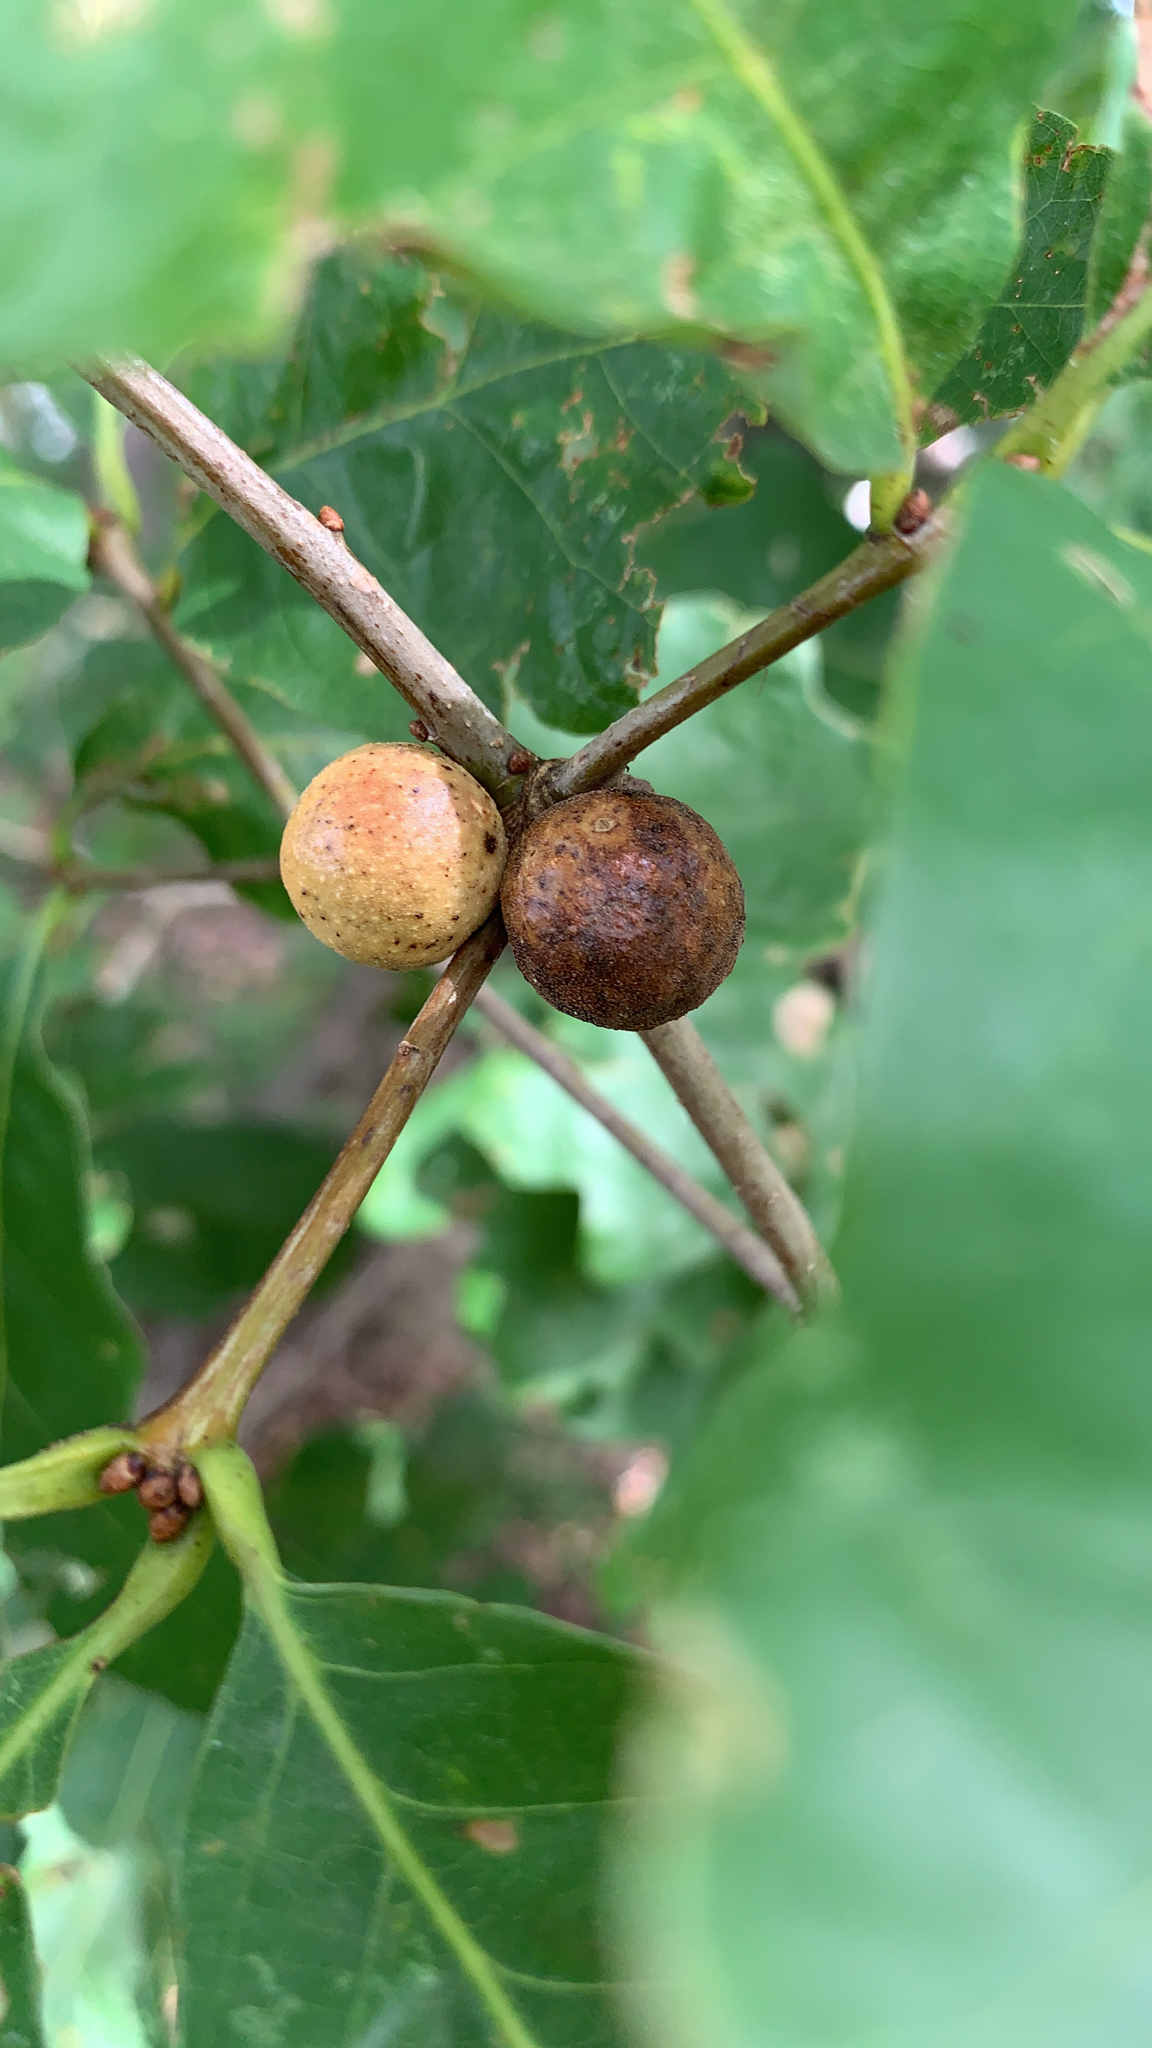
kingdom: Animalia
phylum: Arthropoda
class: Insecta
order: Hymenoptera
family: Cynipidae
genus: Disholcaspis
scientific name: Disholcaspis quercusglobulus
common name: Round bullet gall wasp
